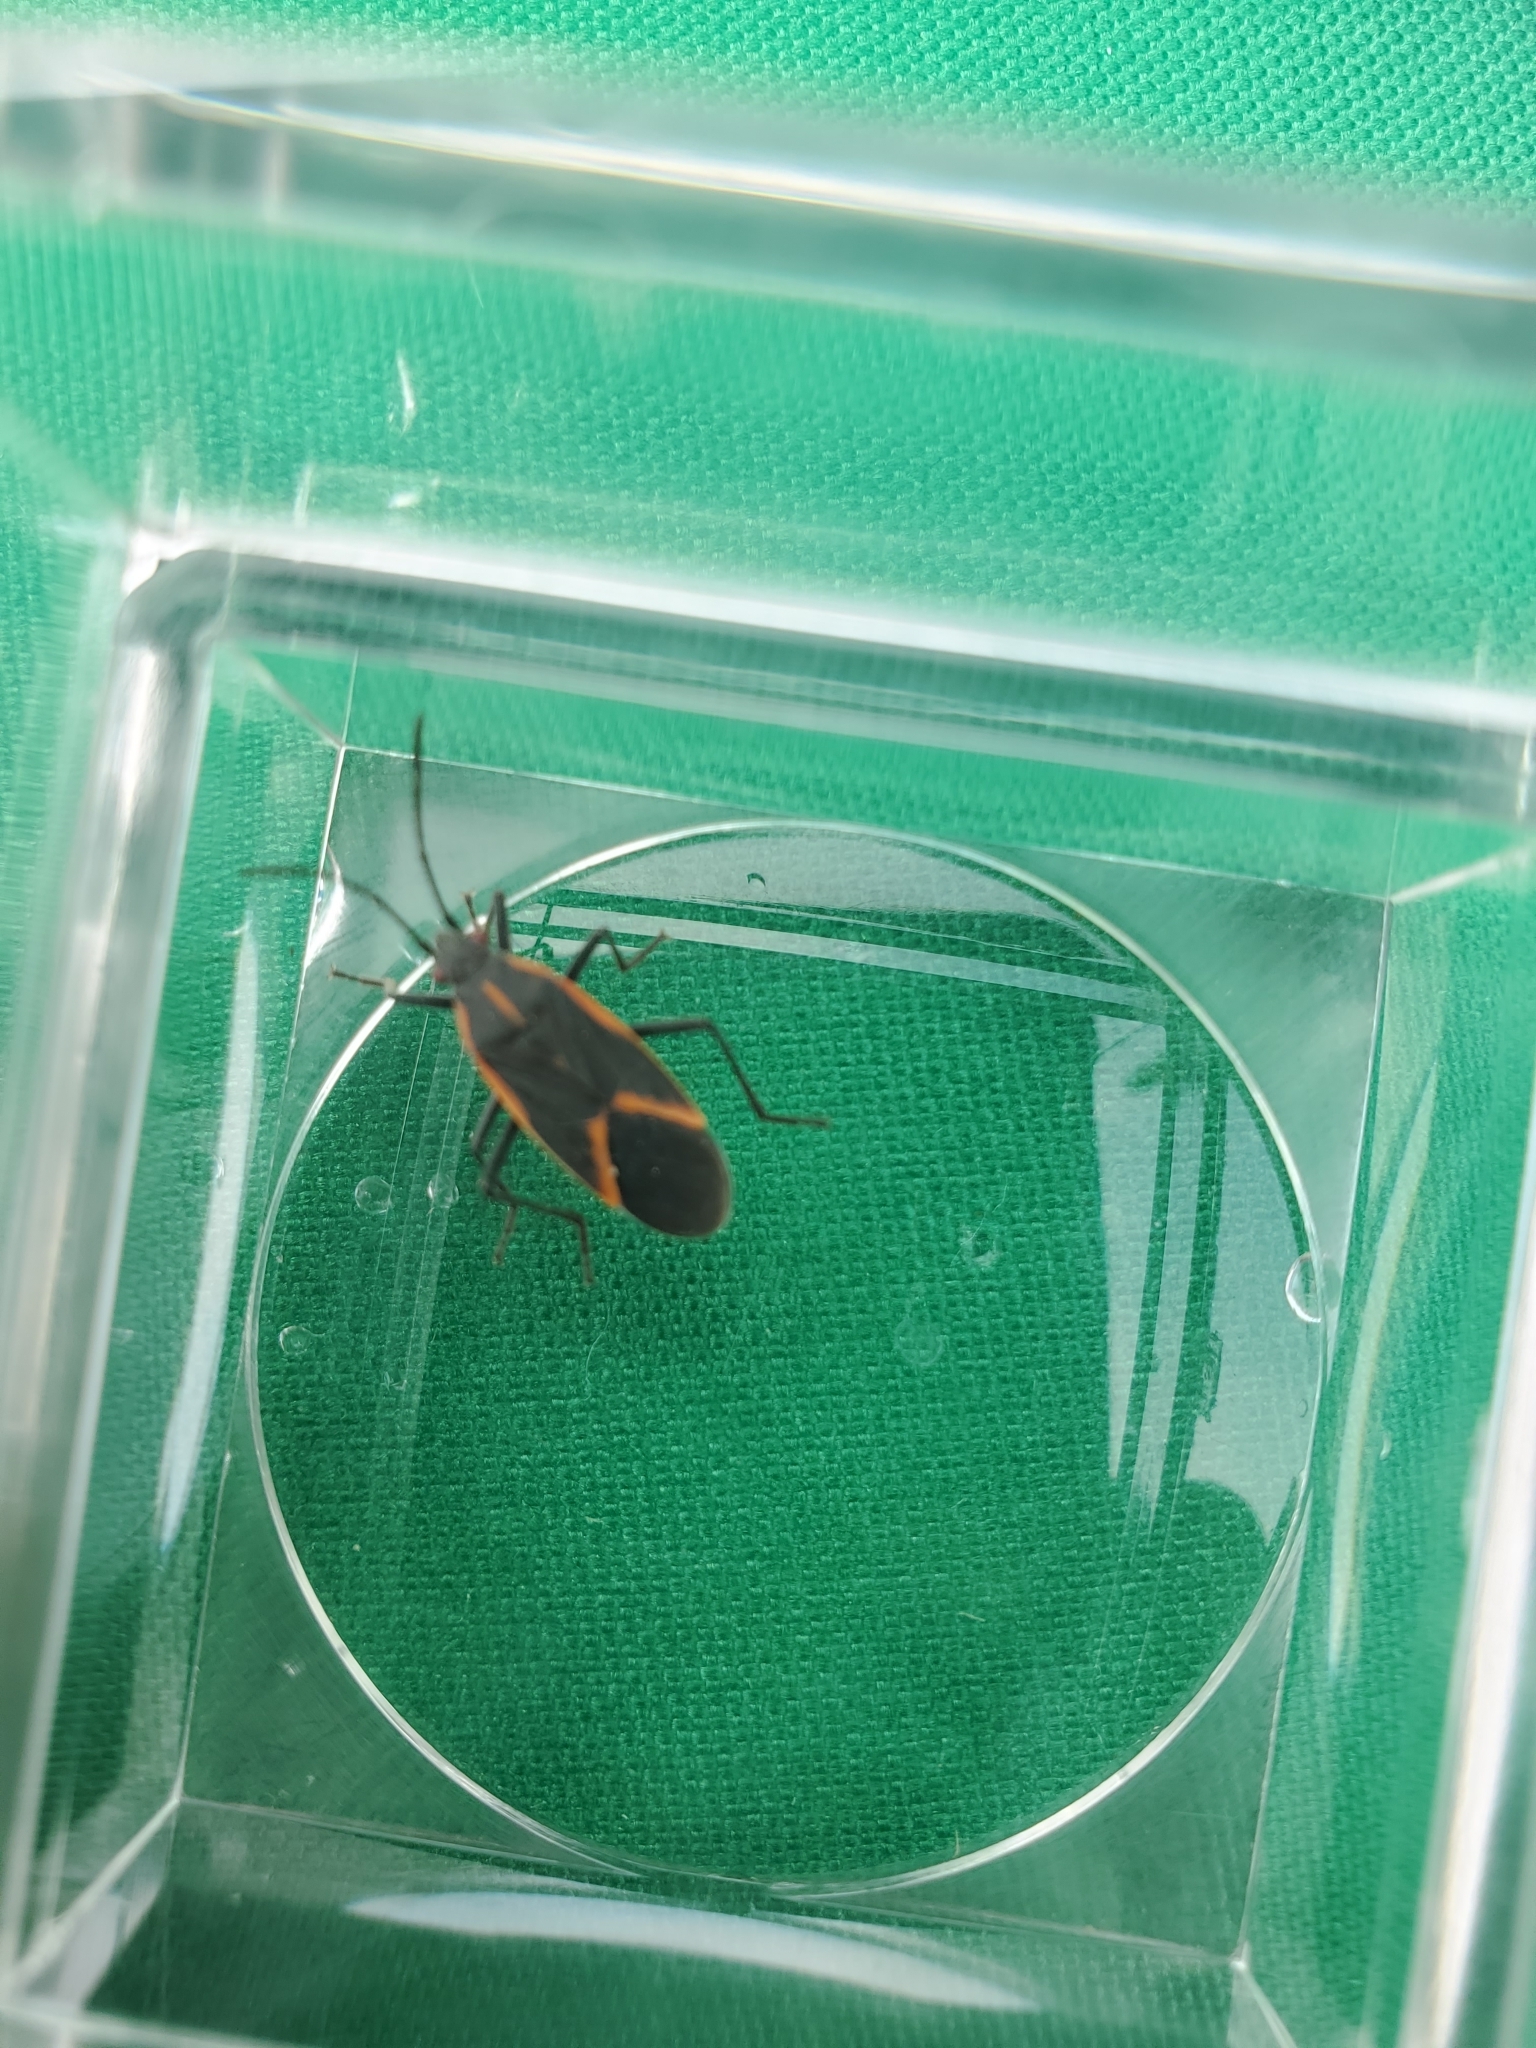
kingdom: Animalia
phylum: Arthropoda
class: Insecta
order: Hemiptera
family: Rhopalidae
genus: Boisea
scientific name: Boisea trivittata
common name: Boxelder bug
